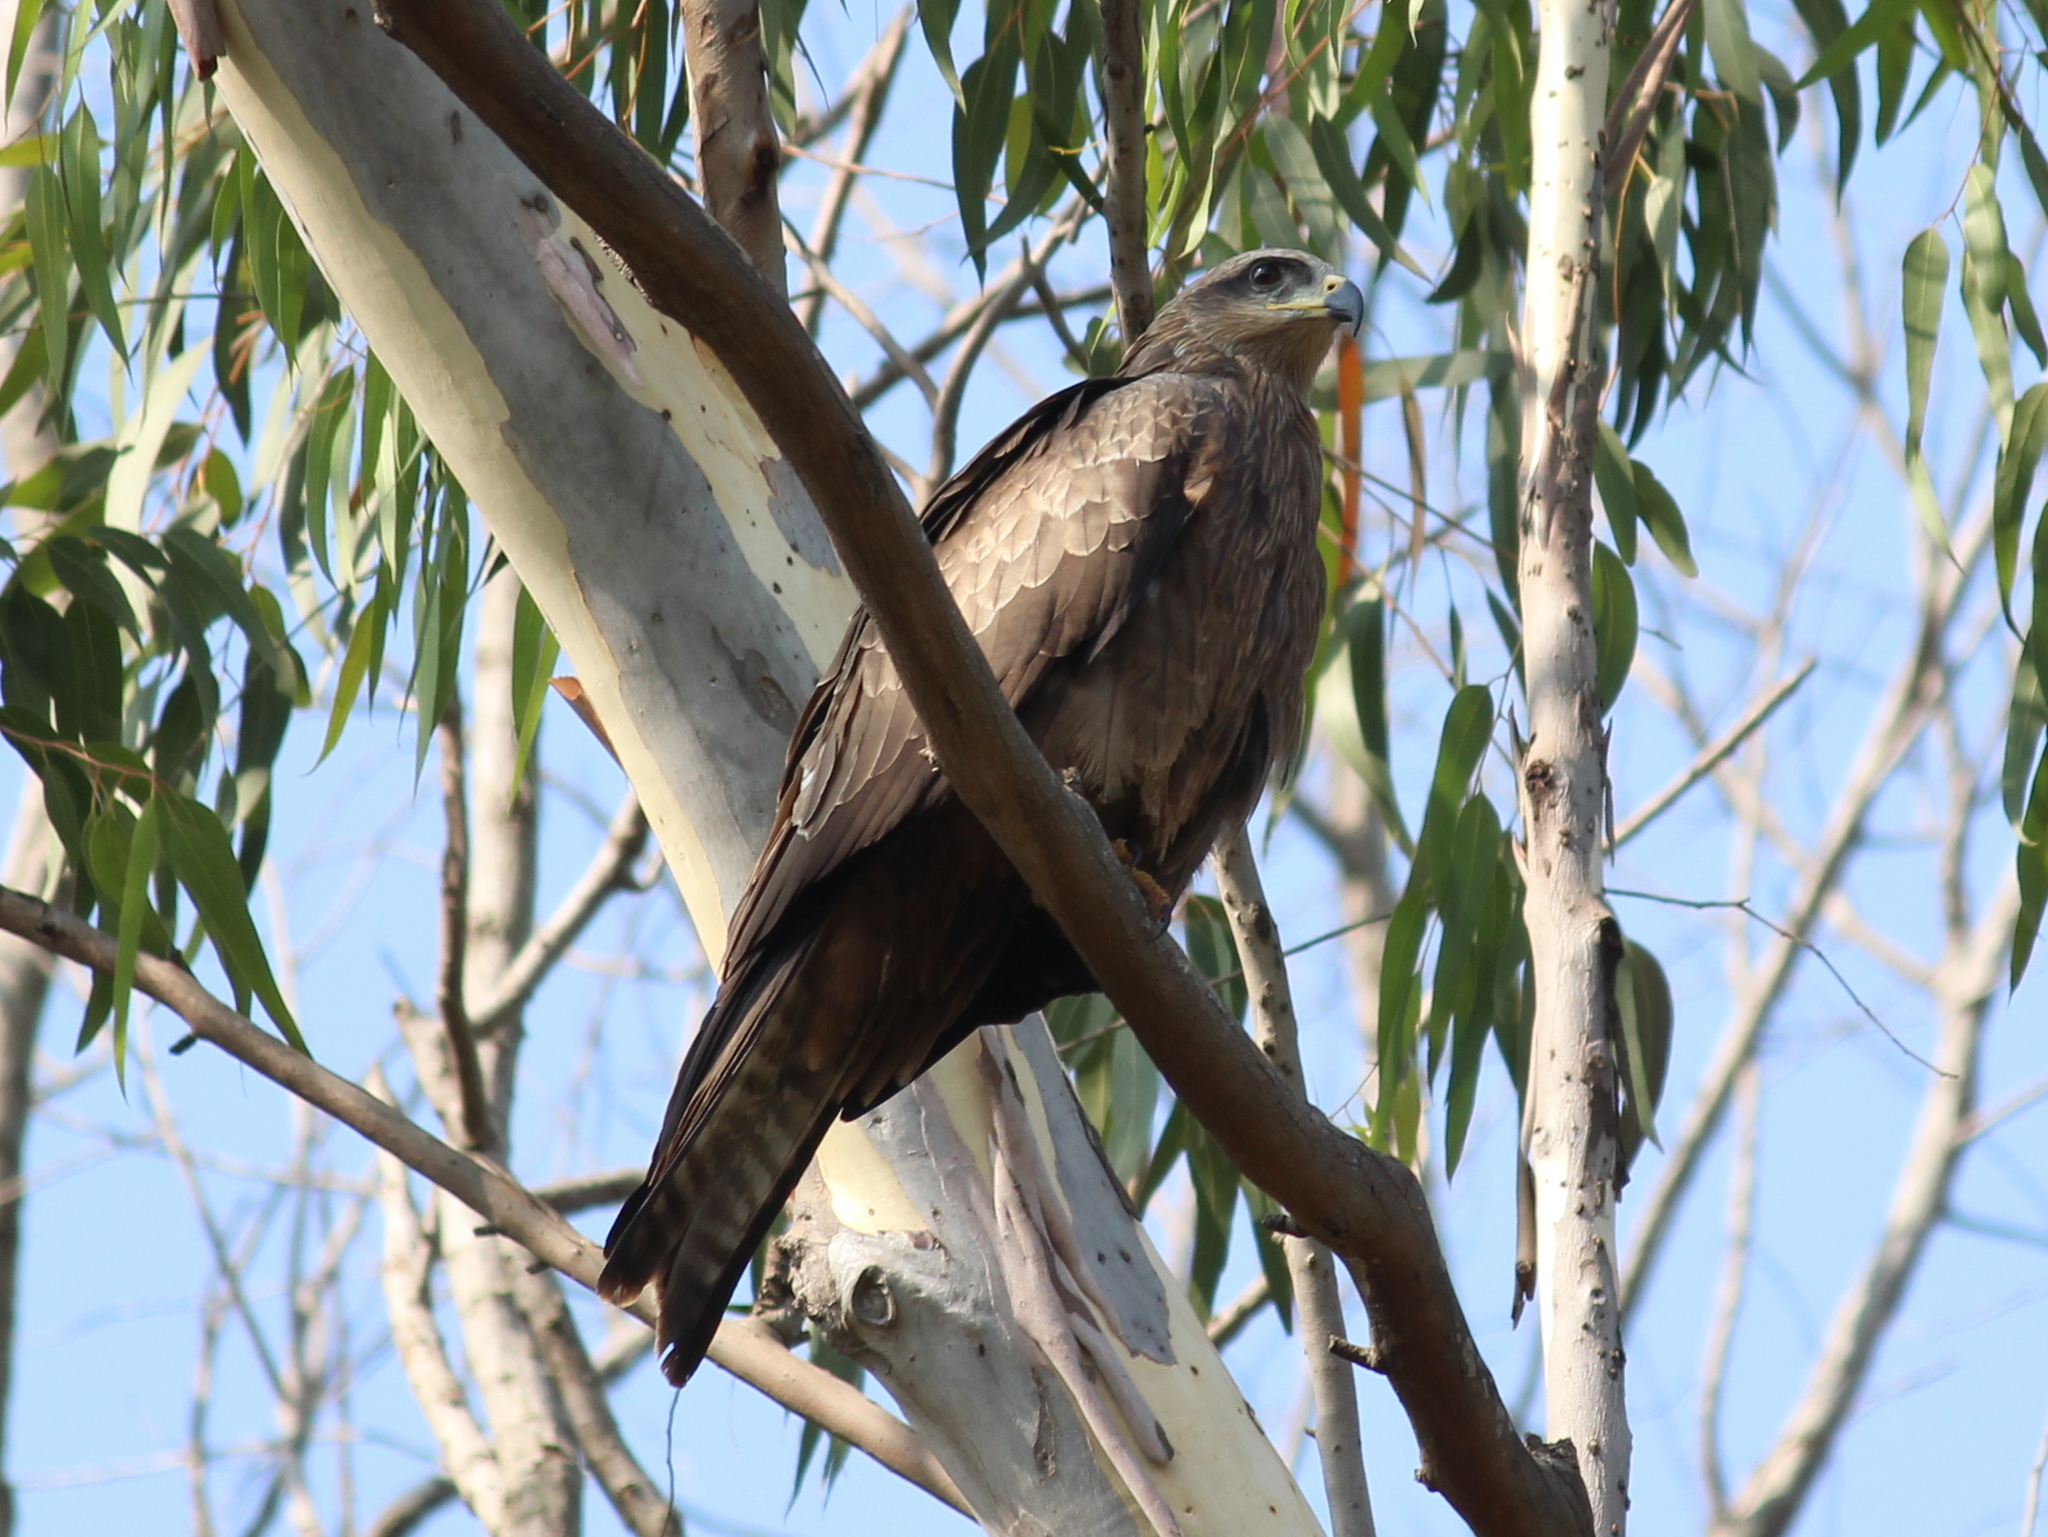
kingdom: Animalia
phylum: Chordata
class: Aves
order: Accipitriformes
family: Accipitridae
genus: Milvus
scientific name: Milvus migrans
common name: Black kite
